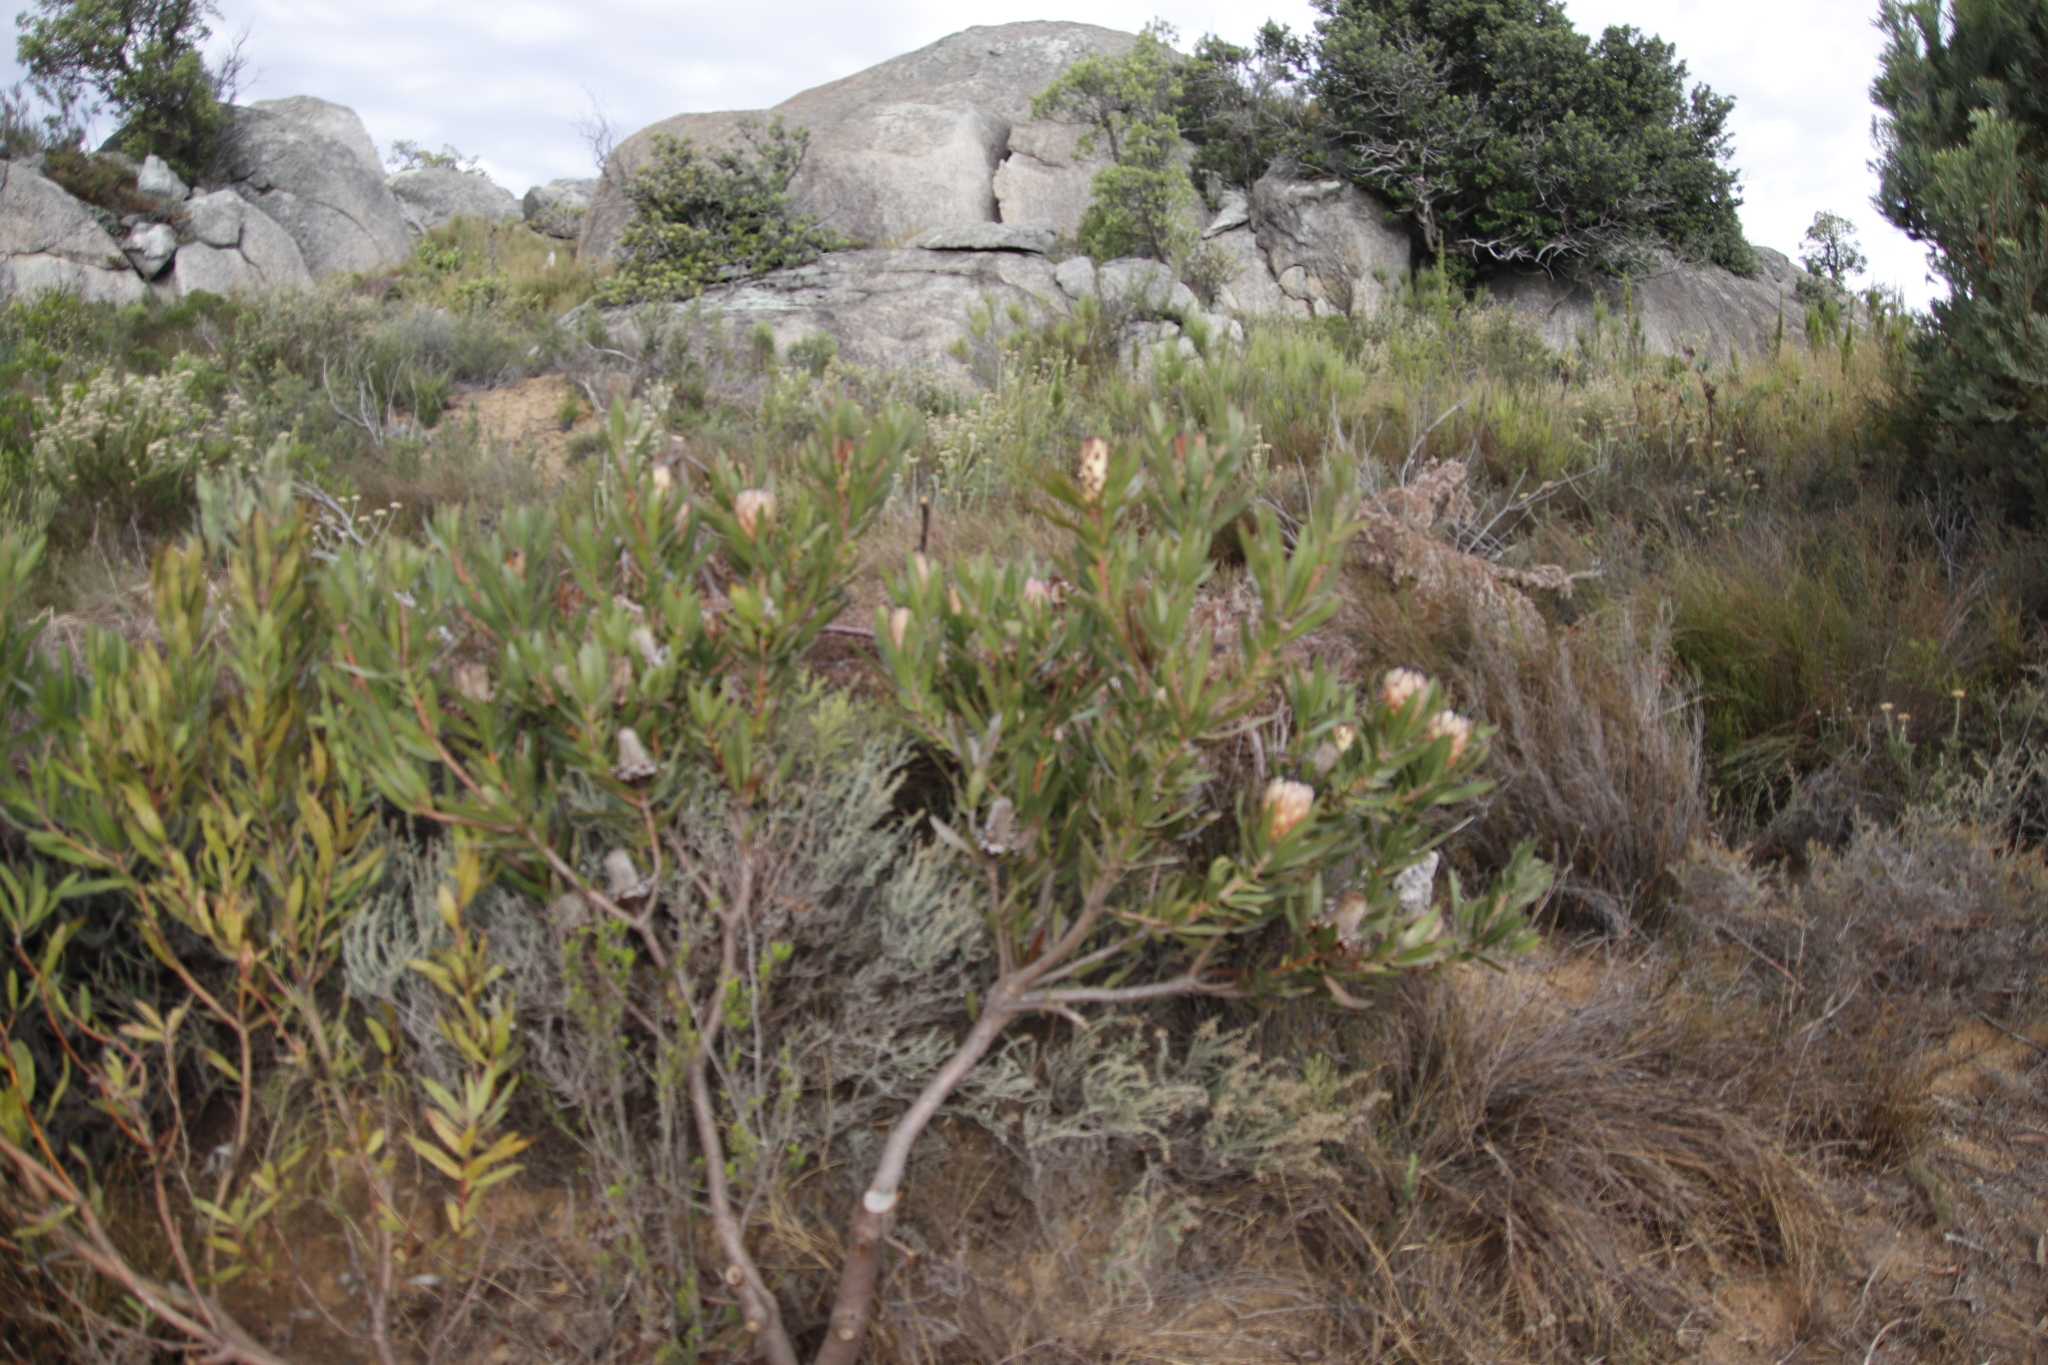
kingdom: Plantae
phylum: Tracheophyta
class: Magnoliopsida
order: Proteales
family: Proteaceae
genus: Protea
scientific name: Protea burchellii
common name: Burchell's sugarbush
